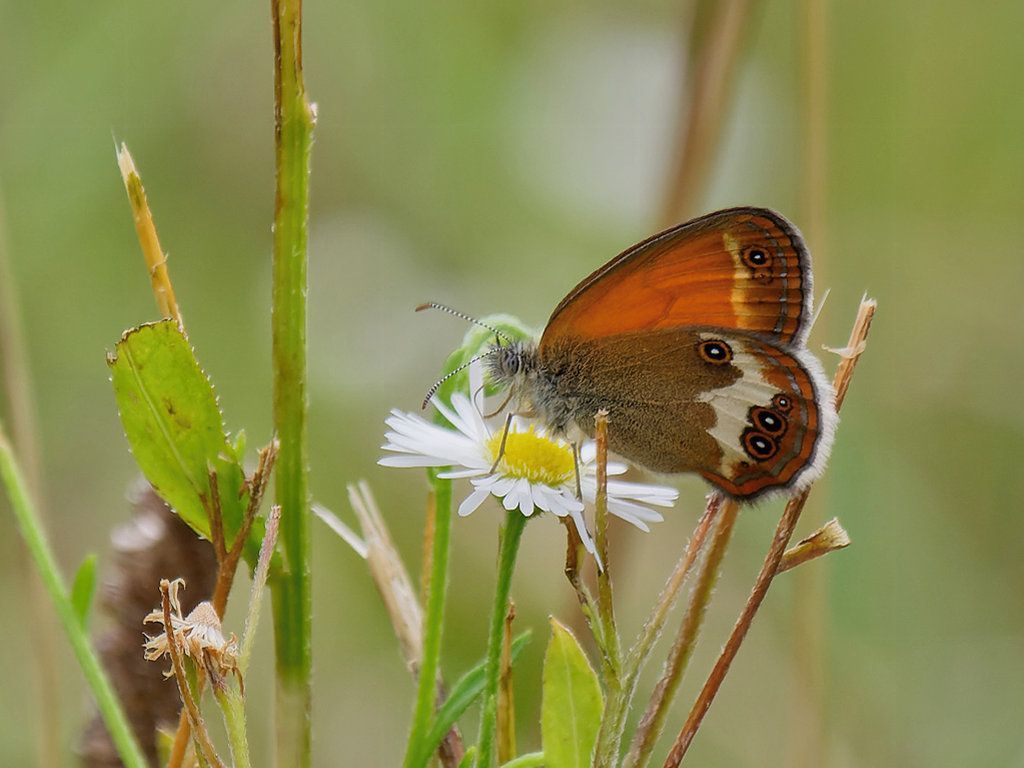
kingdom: Animalia
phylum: Arthropoda
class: Insecta
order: Lepidoptera
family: Nymphalidae
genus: Coenonympha
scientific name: Coenonympha arcania
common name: Pearly heath
